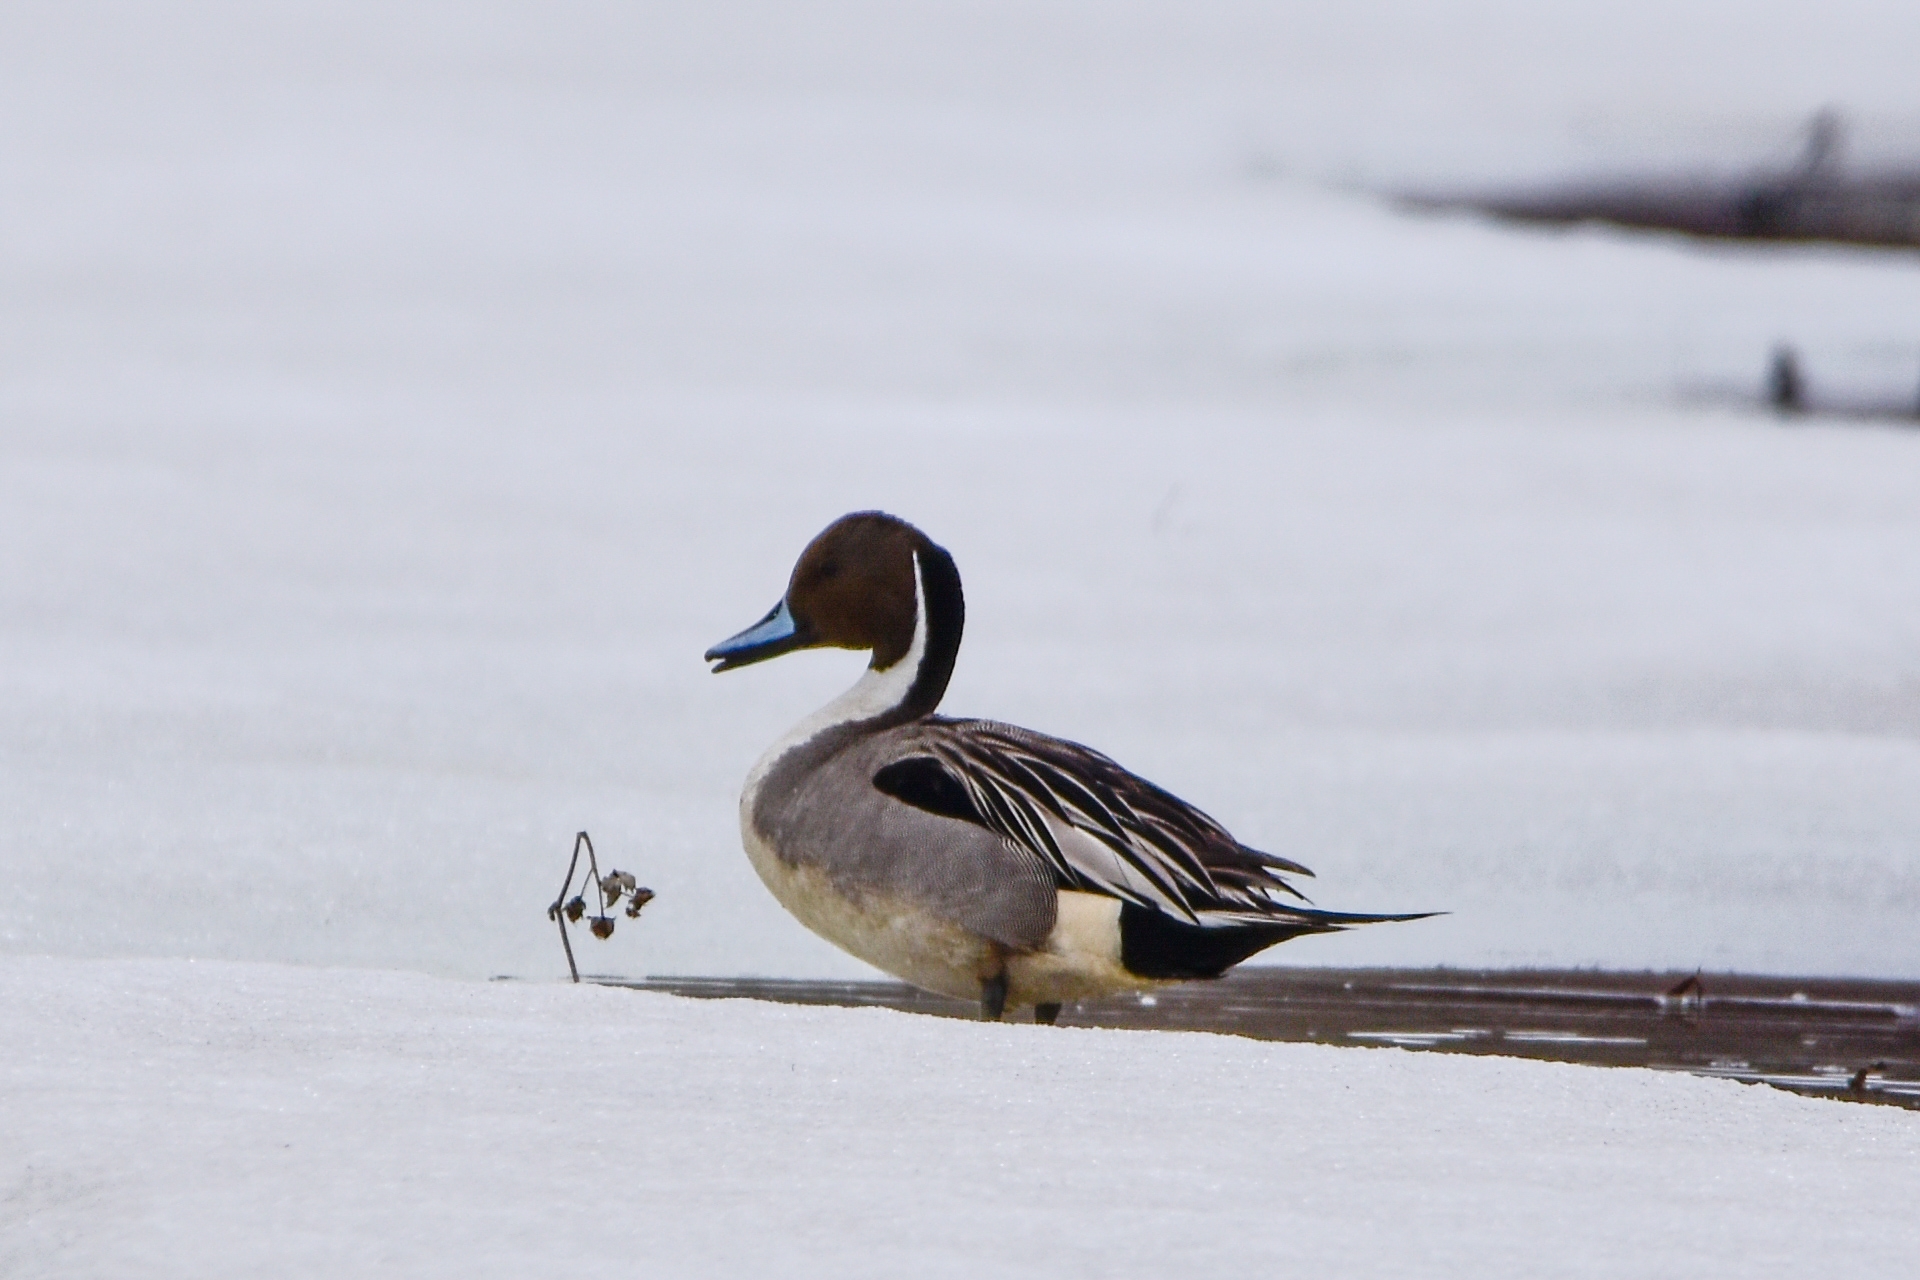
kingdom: Animalia
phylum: Chordata
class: Aves
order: Anseriformes
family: Anatidae
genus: Anas
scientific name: Anas acuta
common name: Northern pintail
